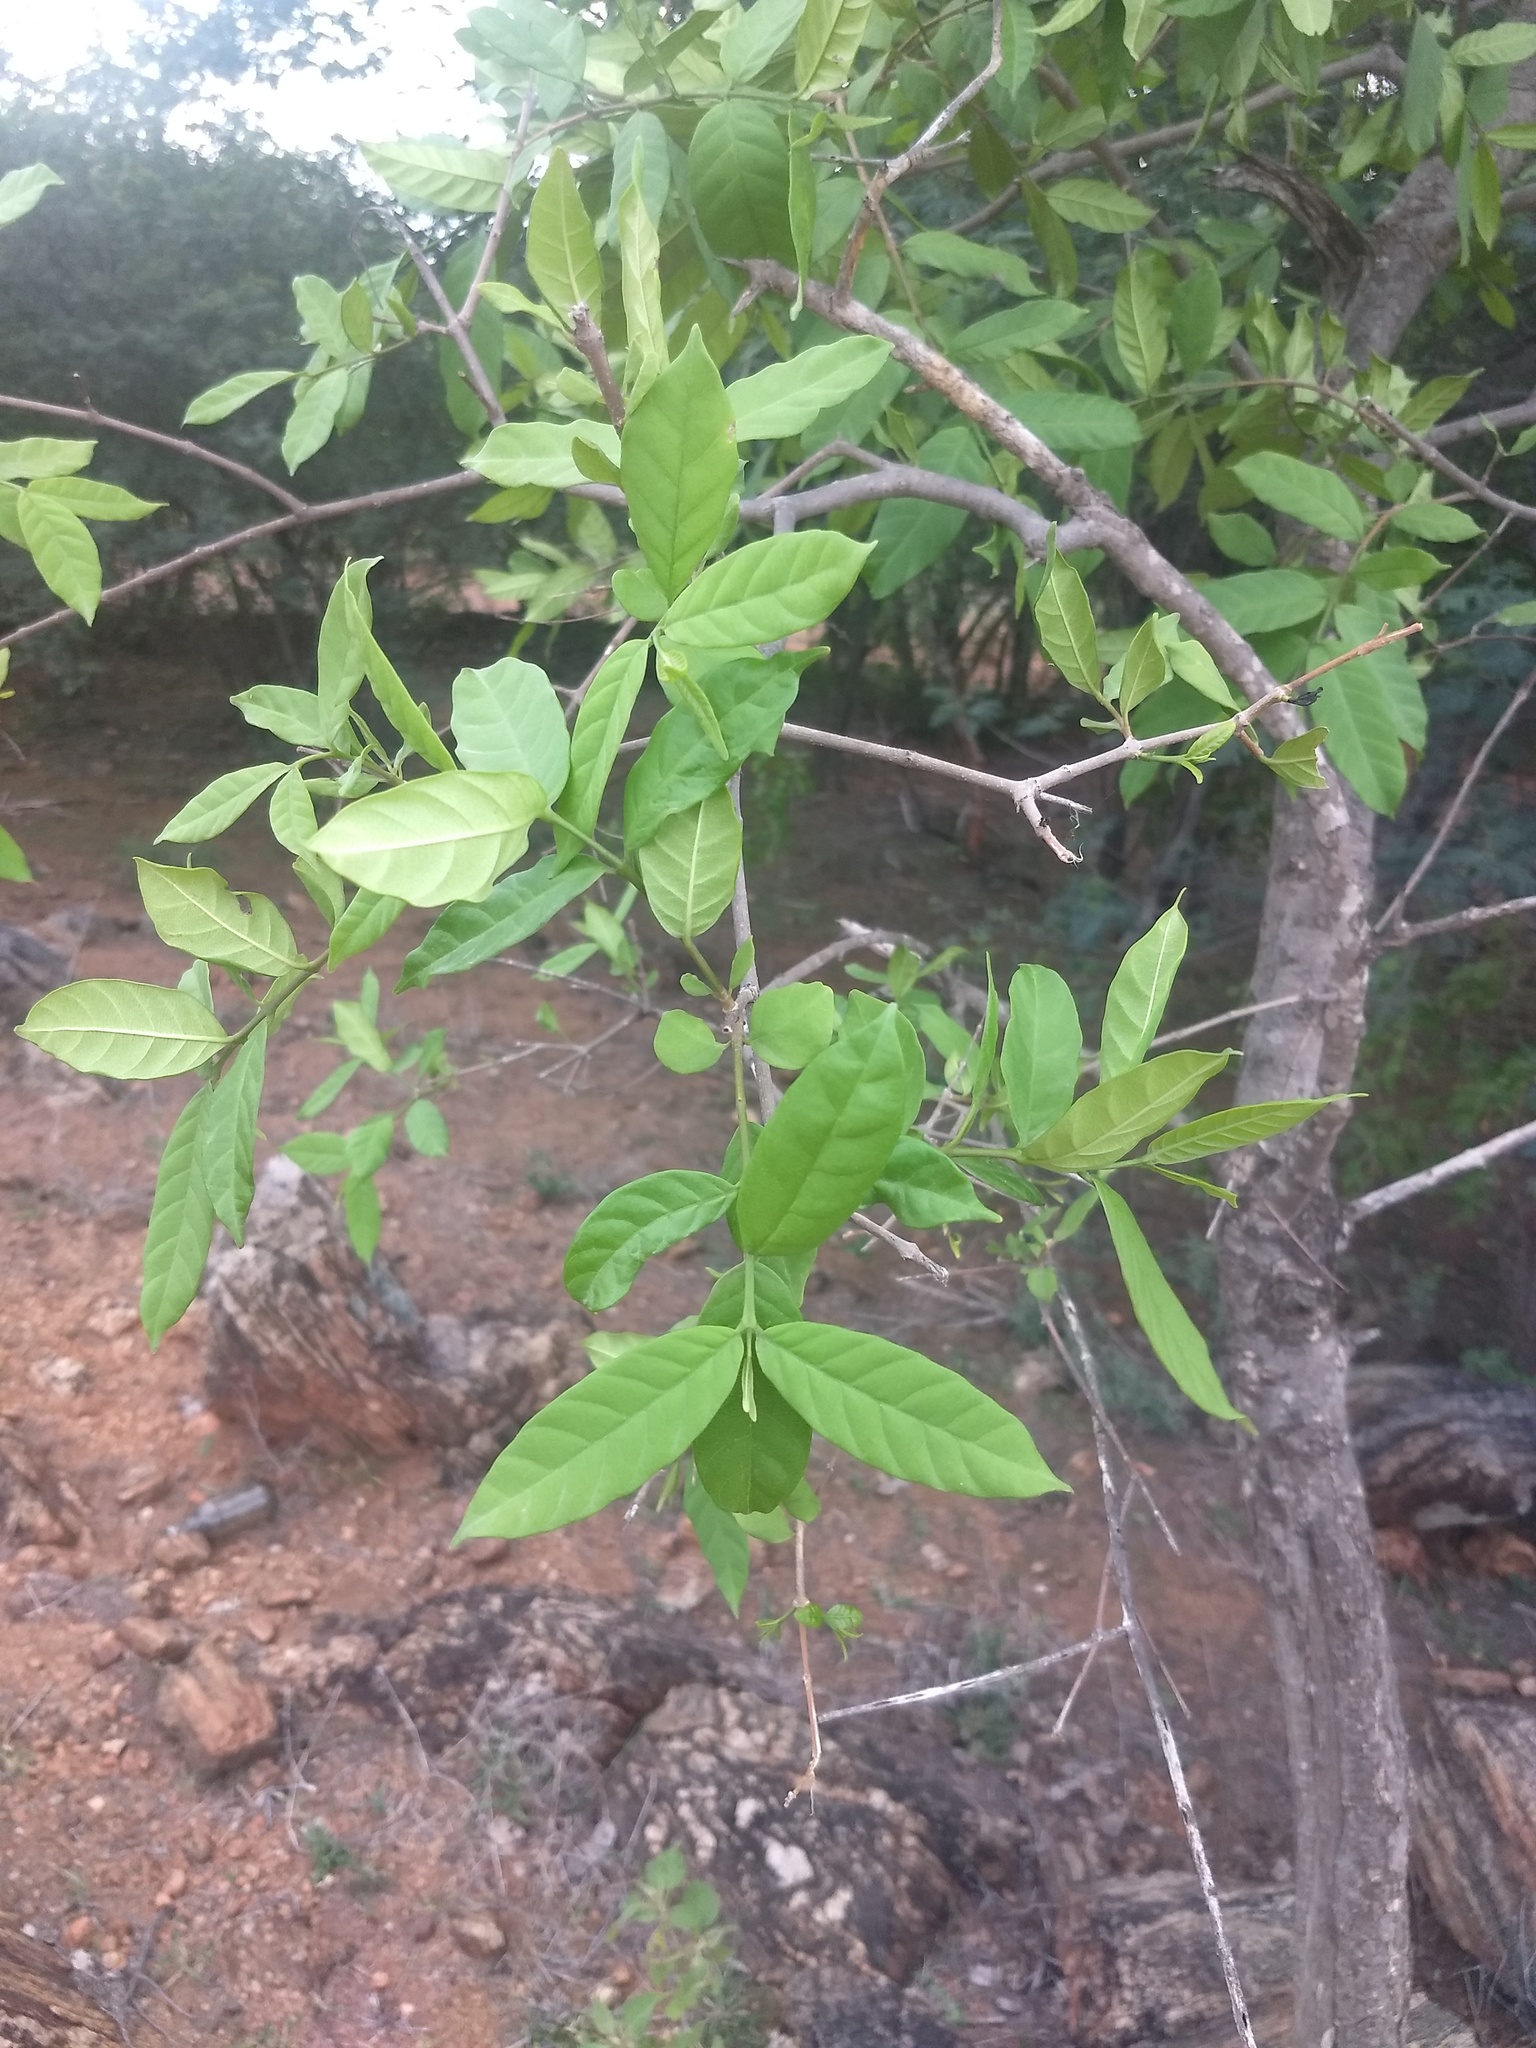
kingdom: Plantae
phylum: Tracheophyta
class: Magnoliopsida
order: Gentianales
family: Apocynaceae
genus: Wrightia
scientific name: Wrightia tinctoria
